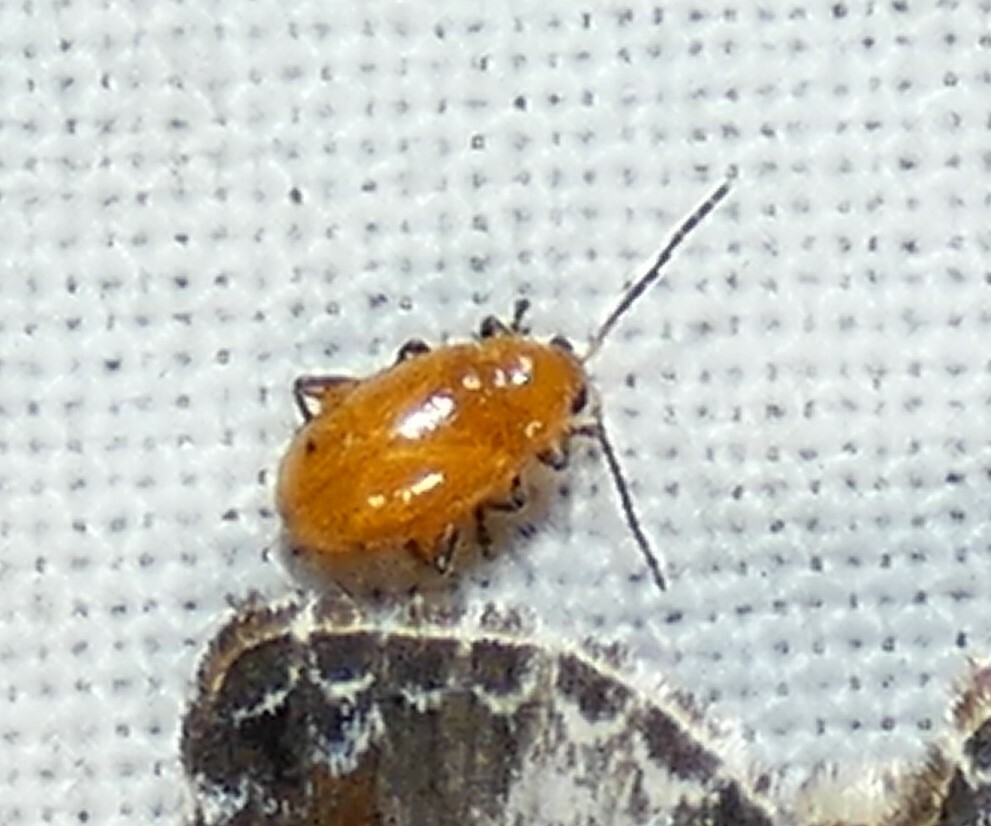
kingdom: Animalia
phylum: Arthropoda
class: Insecta
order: Coleoptera
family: Chrysomelidae
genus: Parchicola
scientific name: Parchicola tibialis
